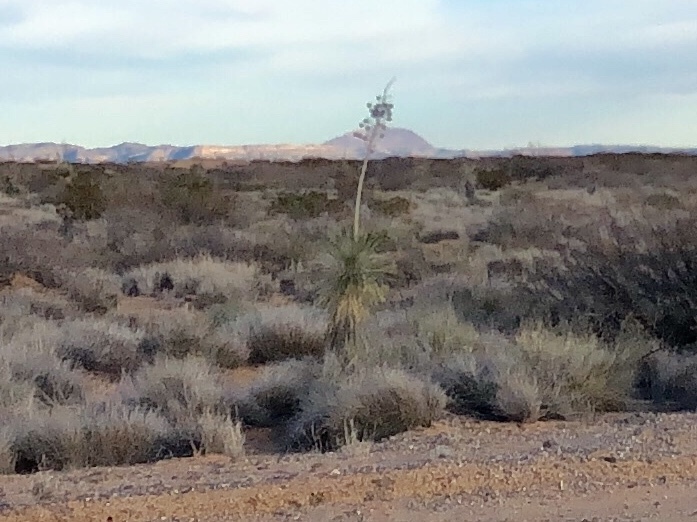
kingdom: Plantae
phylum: Tracheophyta
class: Liliopsida
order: Asparagales
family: Asparagaceae
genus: Yucca
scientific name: Yucca elata
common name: Palmella
